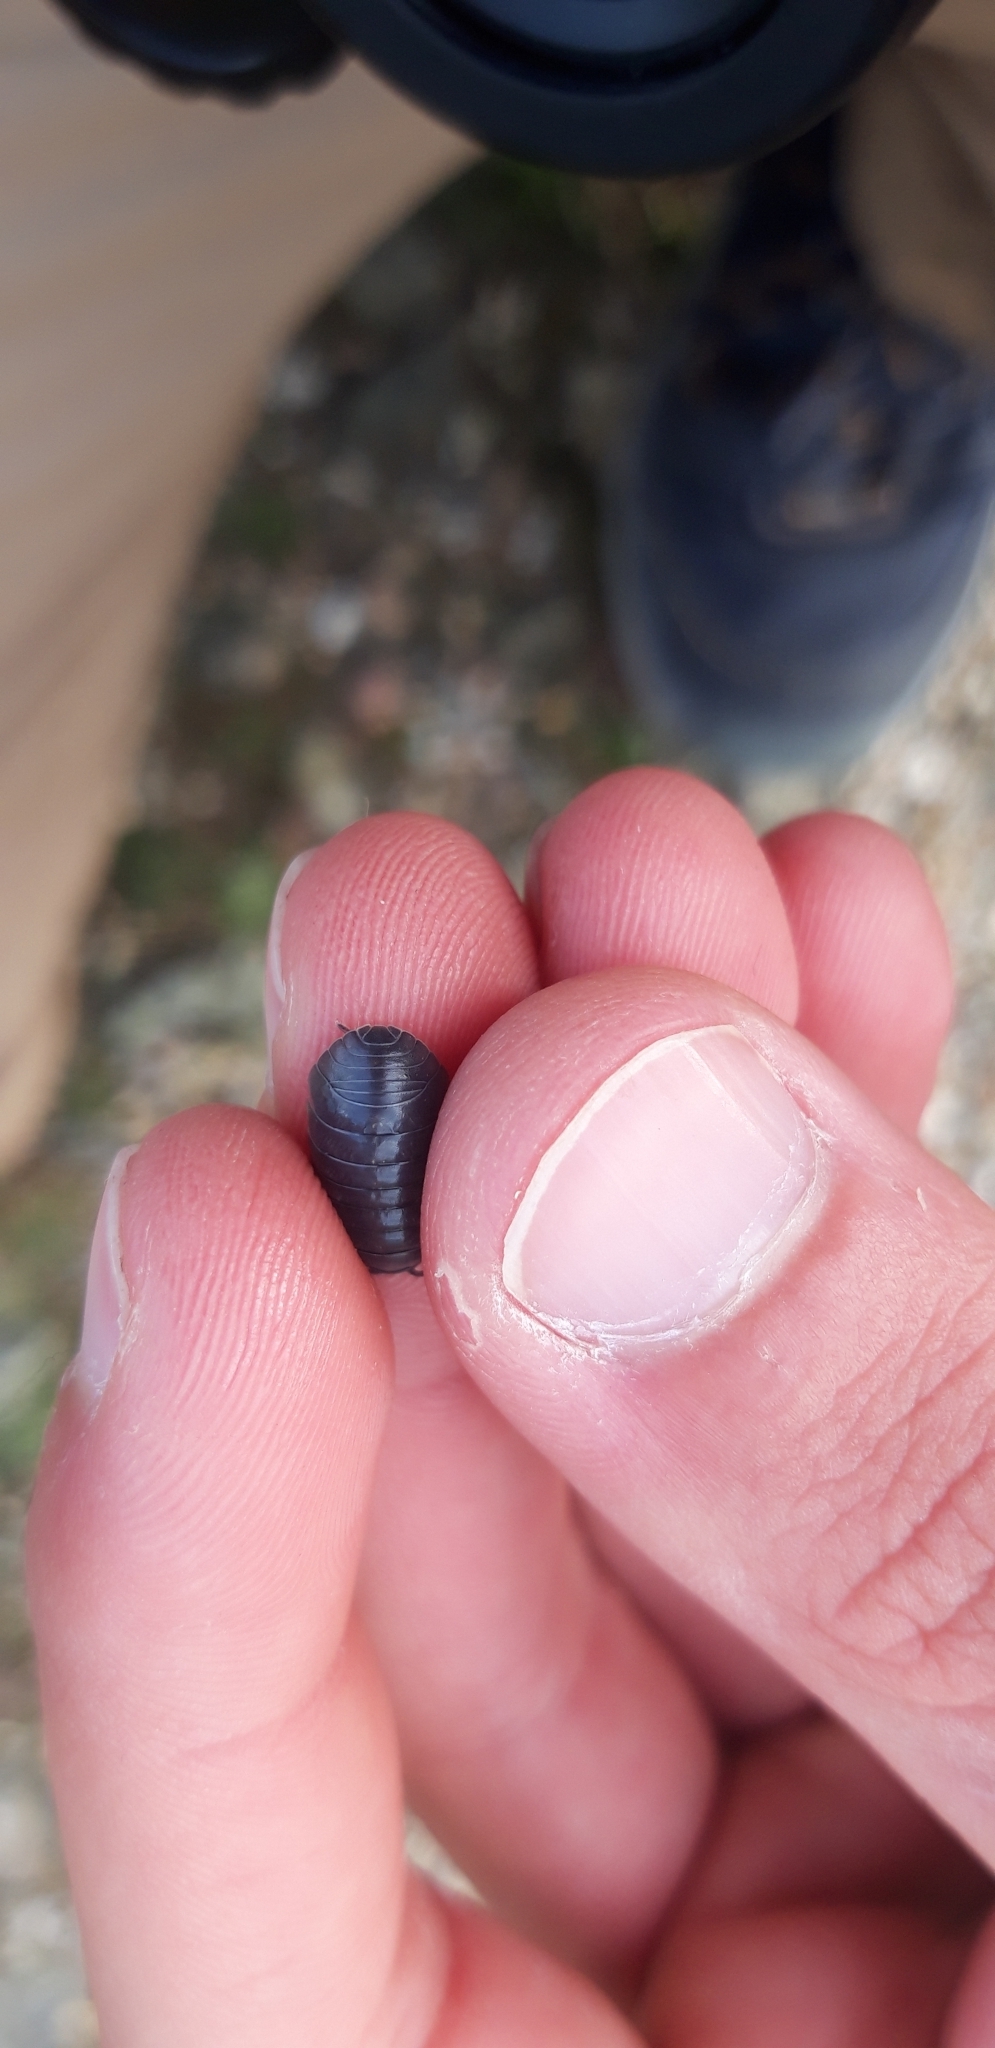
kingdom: Animalia
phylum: Arthropoda
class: Malacostraca
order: Isopoda
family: Armadillidiidae
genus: Armadillidium
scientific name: Armadillidium vulgare
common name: Common pill woodlouse
